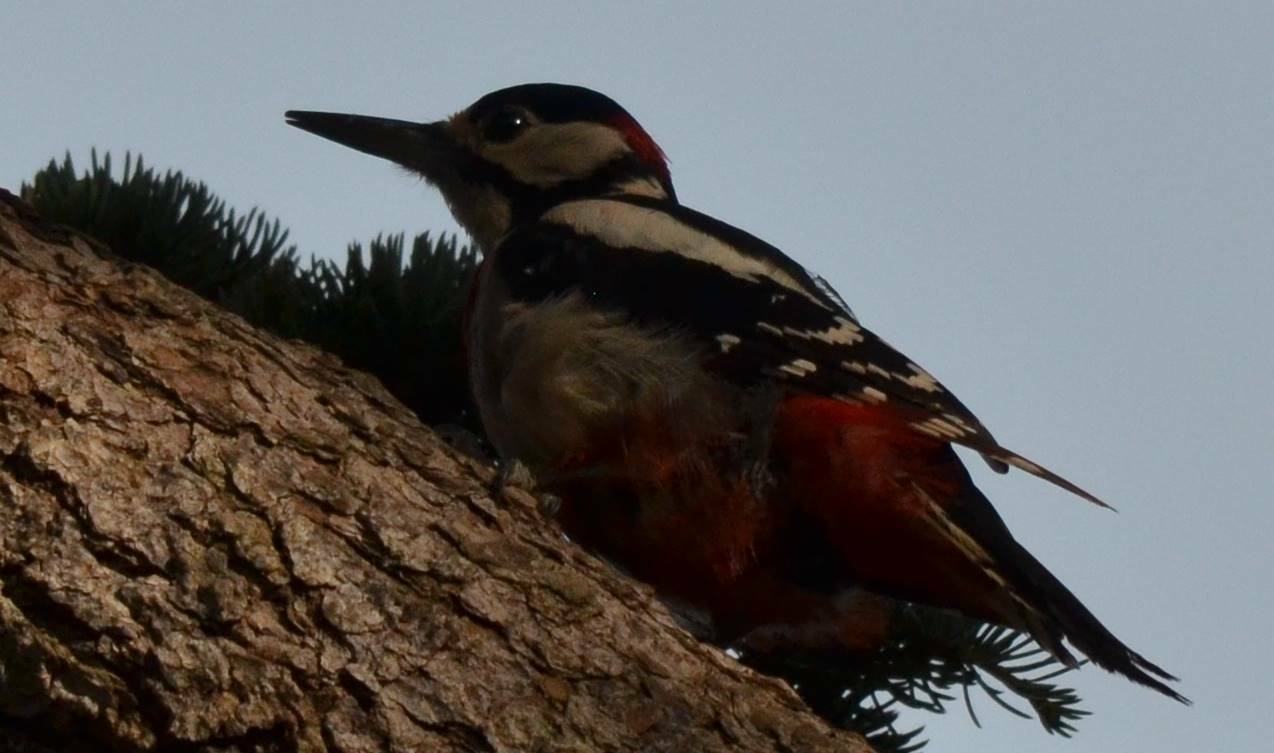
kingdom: Animalia
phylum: Chordata
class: Aves
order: Piciformes
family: Picidae
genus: Dendrocopos
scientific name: Dendrocopos major
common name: Great spotted woodpecker
